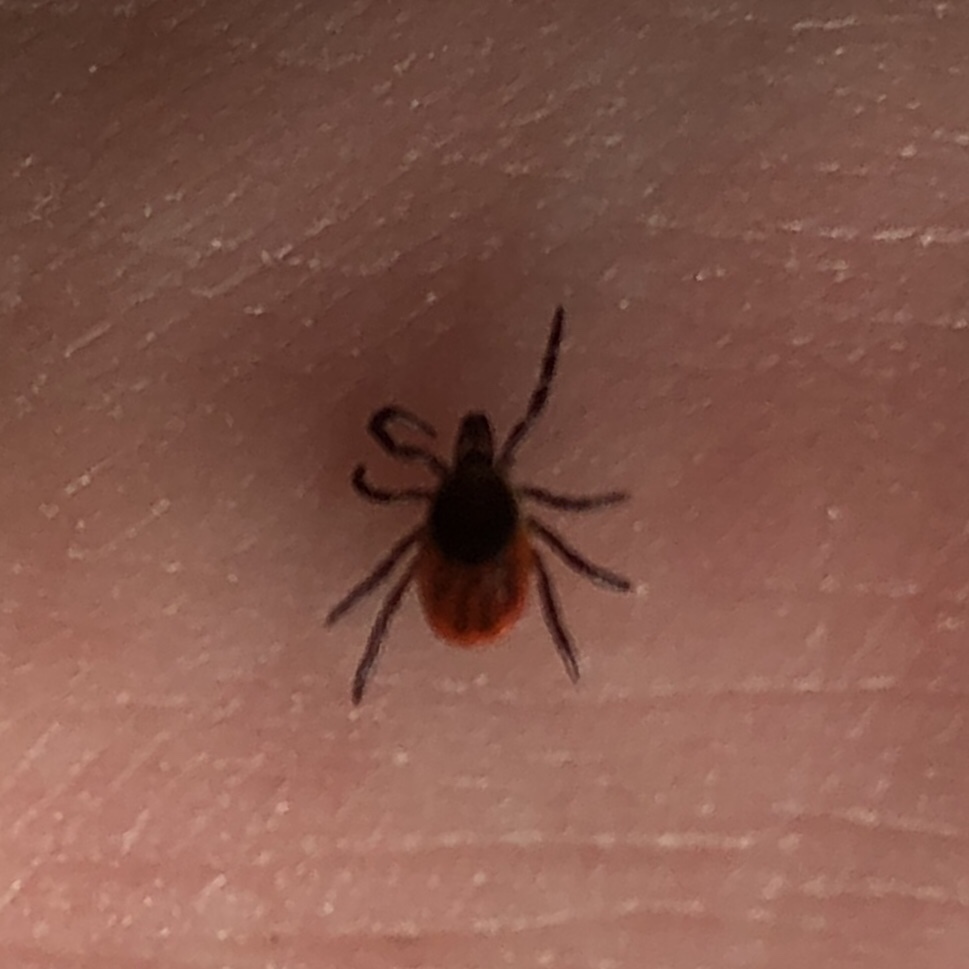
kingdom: Animalia
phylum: Arthropoda
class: Arachnida
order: Ixodida
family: Ixodidae
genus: Ixodes
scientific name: Ixodes scapularis
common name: Black legged tick
